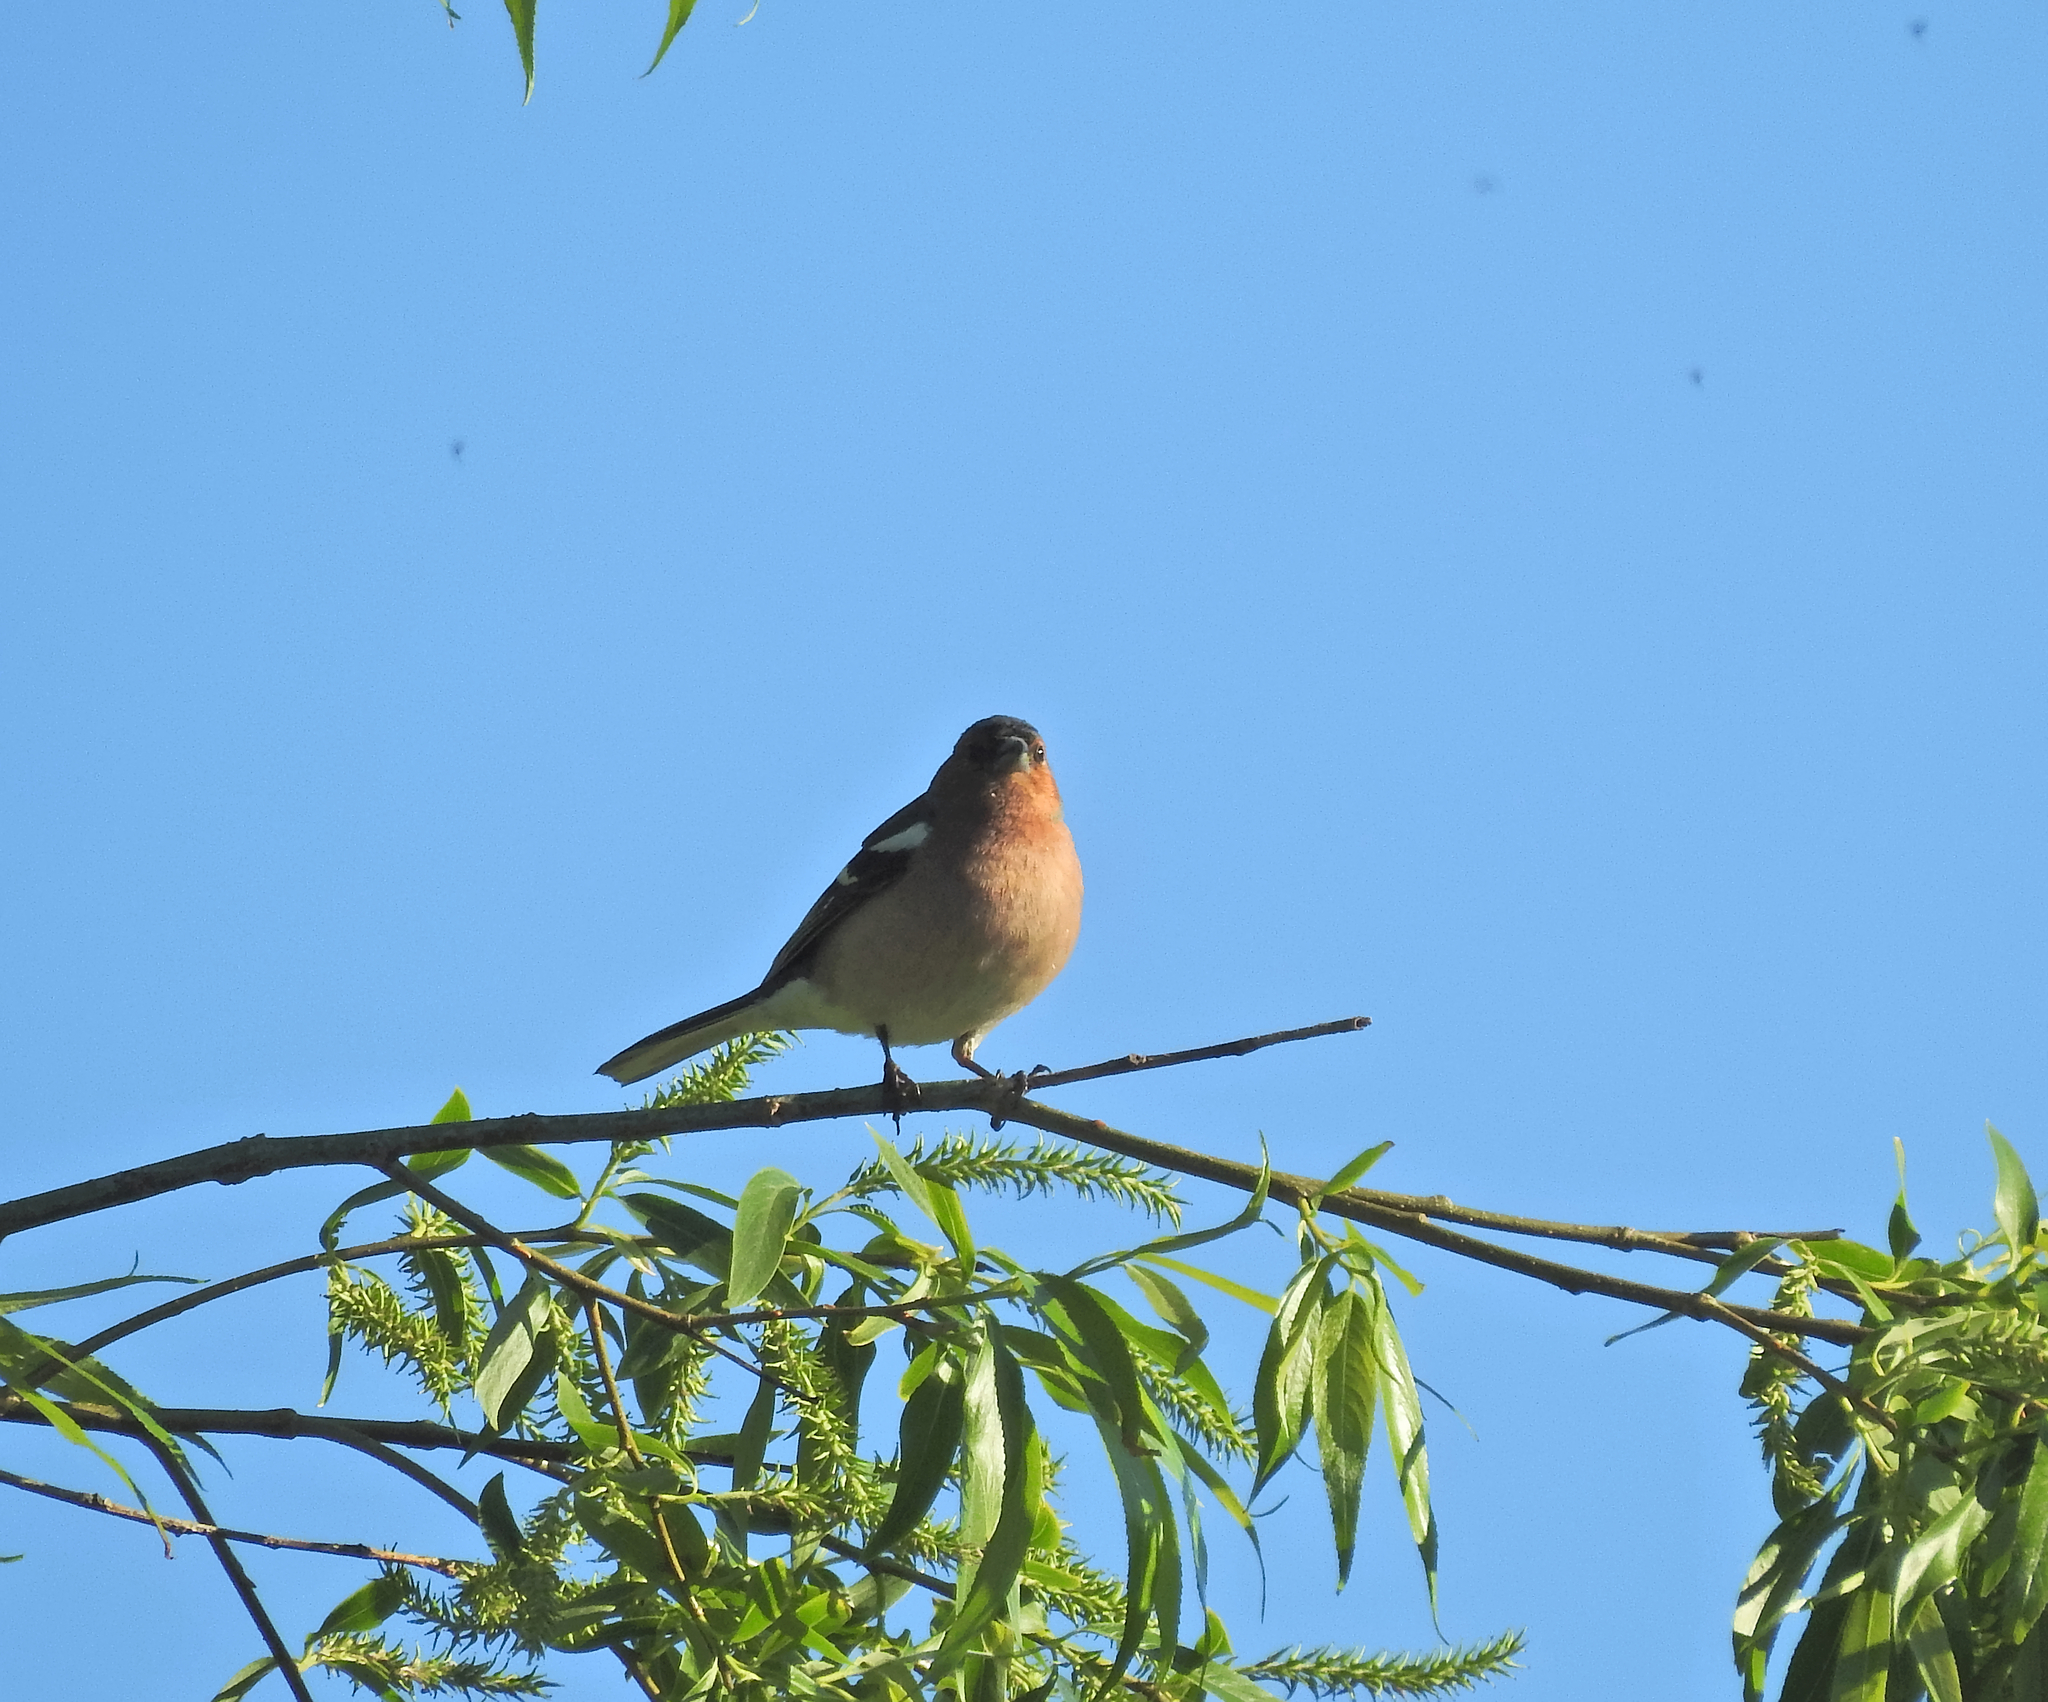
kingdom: Animalia
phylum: Chordata
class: Aves
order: Passeriformes
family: Fringillidae
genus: Fringilla
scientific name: Fringilla coelebs
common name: Common chaffinch
